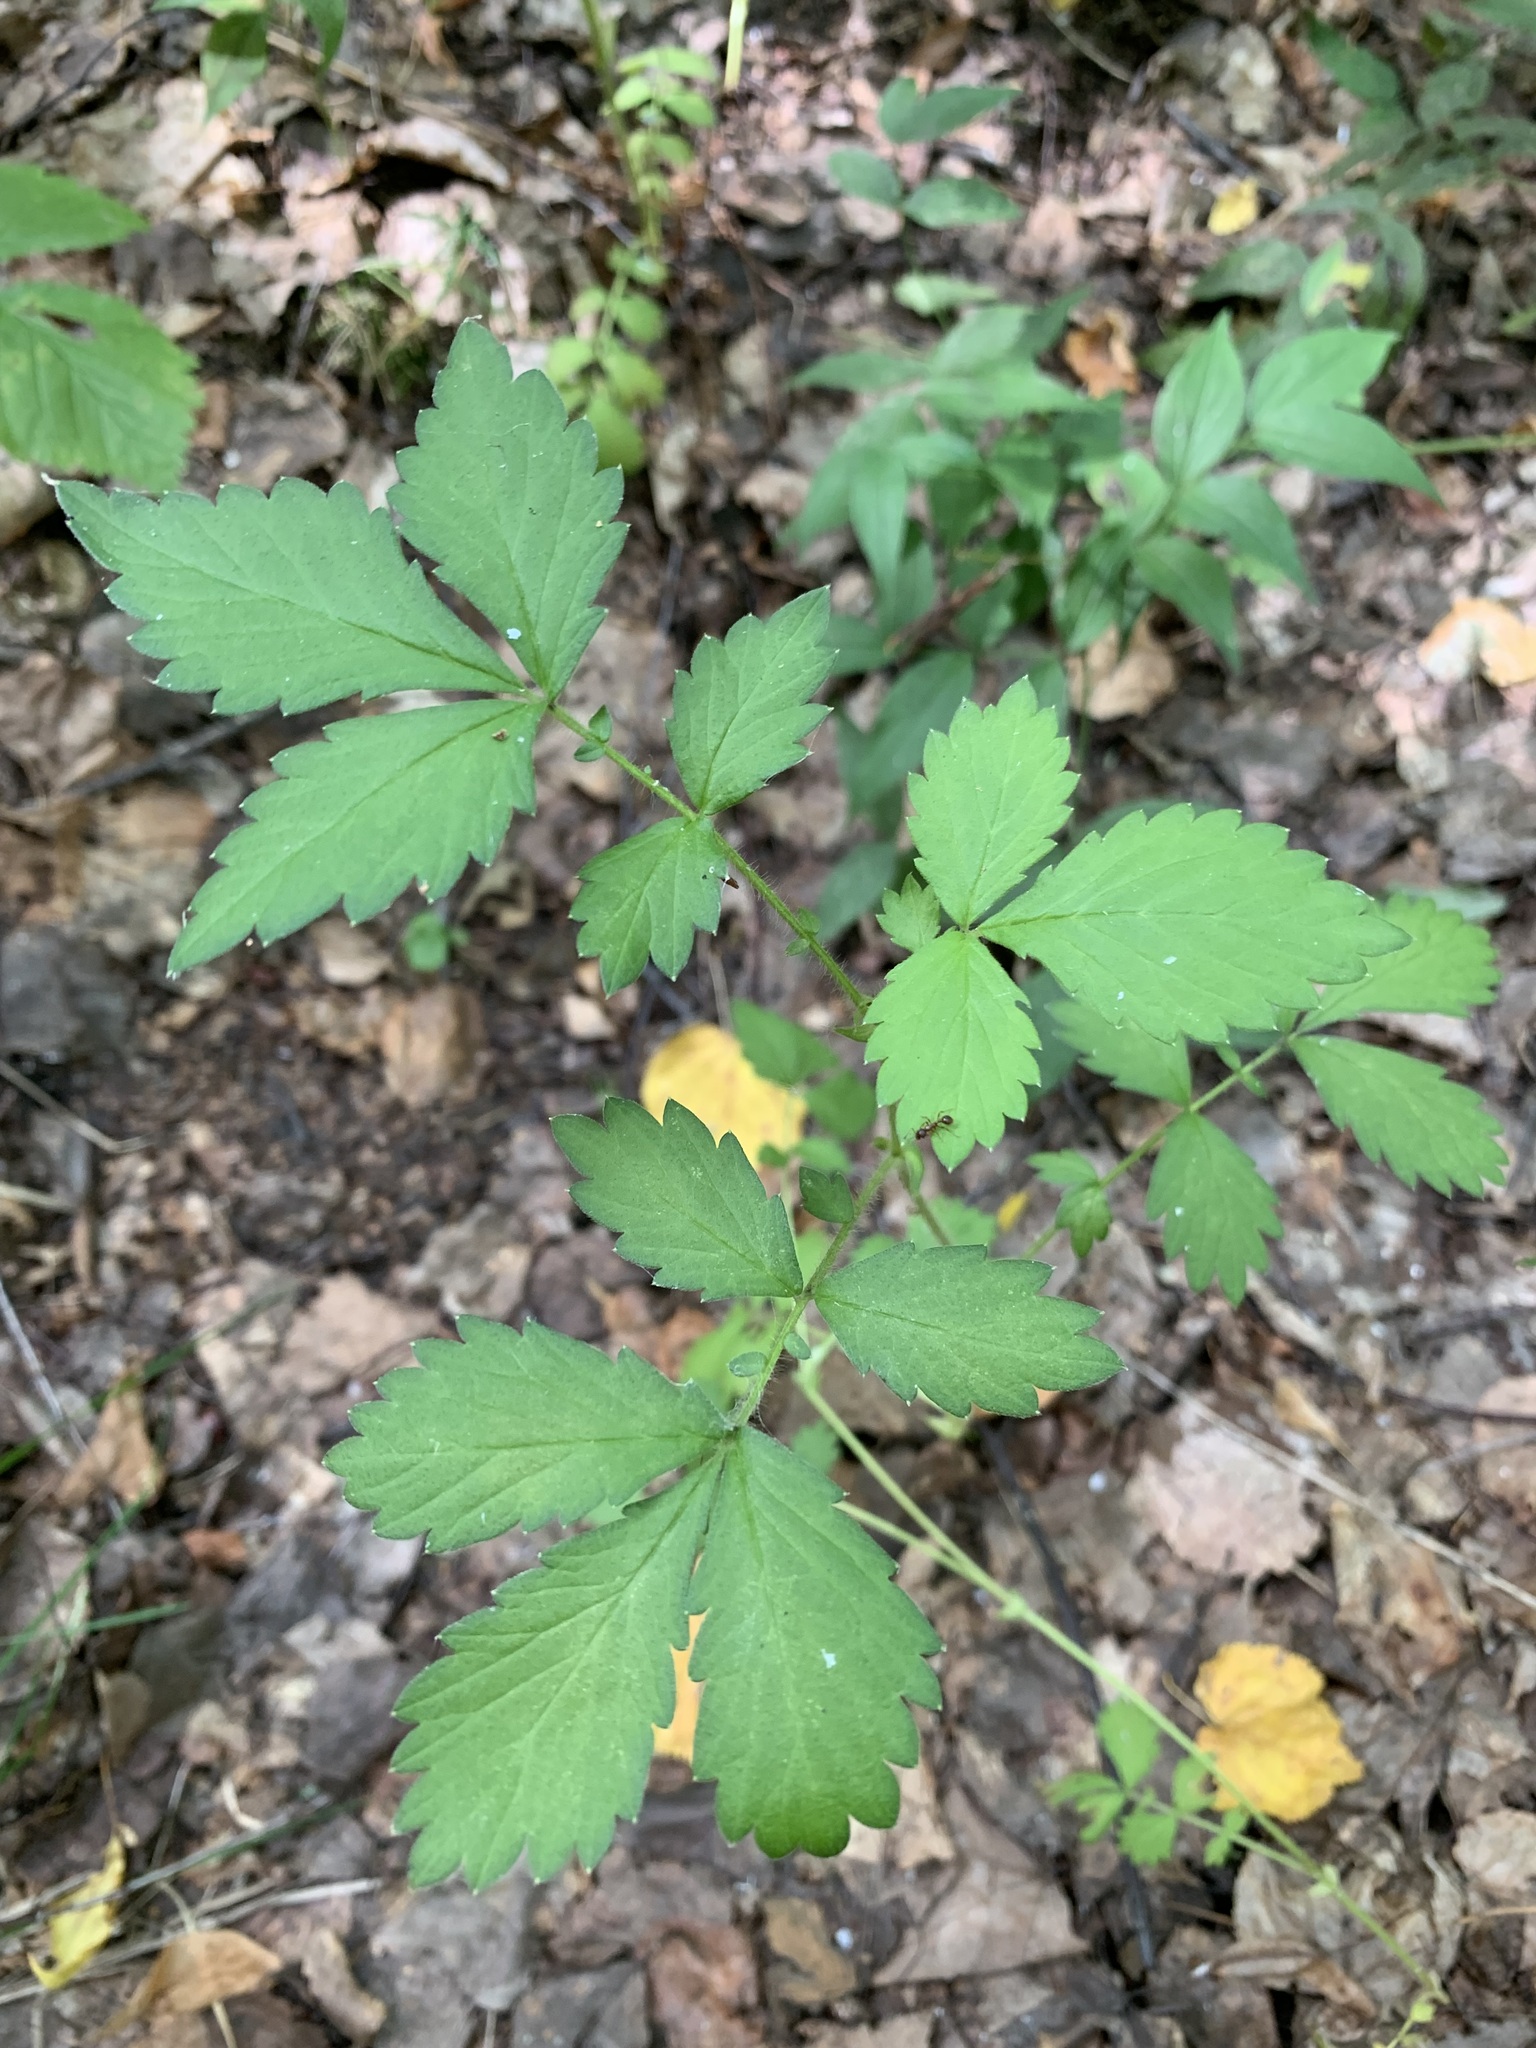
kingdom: Plantae
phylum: Tracheophyta
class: Magnoliopsida
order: Rosales
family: Rosaceae
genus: Agrimonia
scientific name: Agrimonia pilosa
